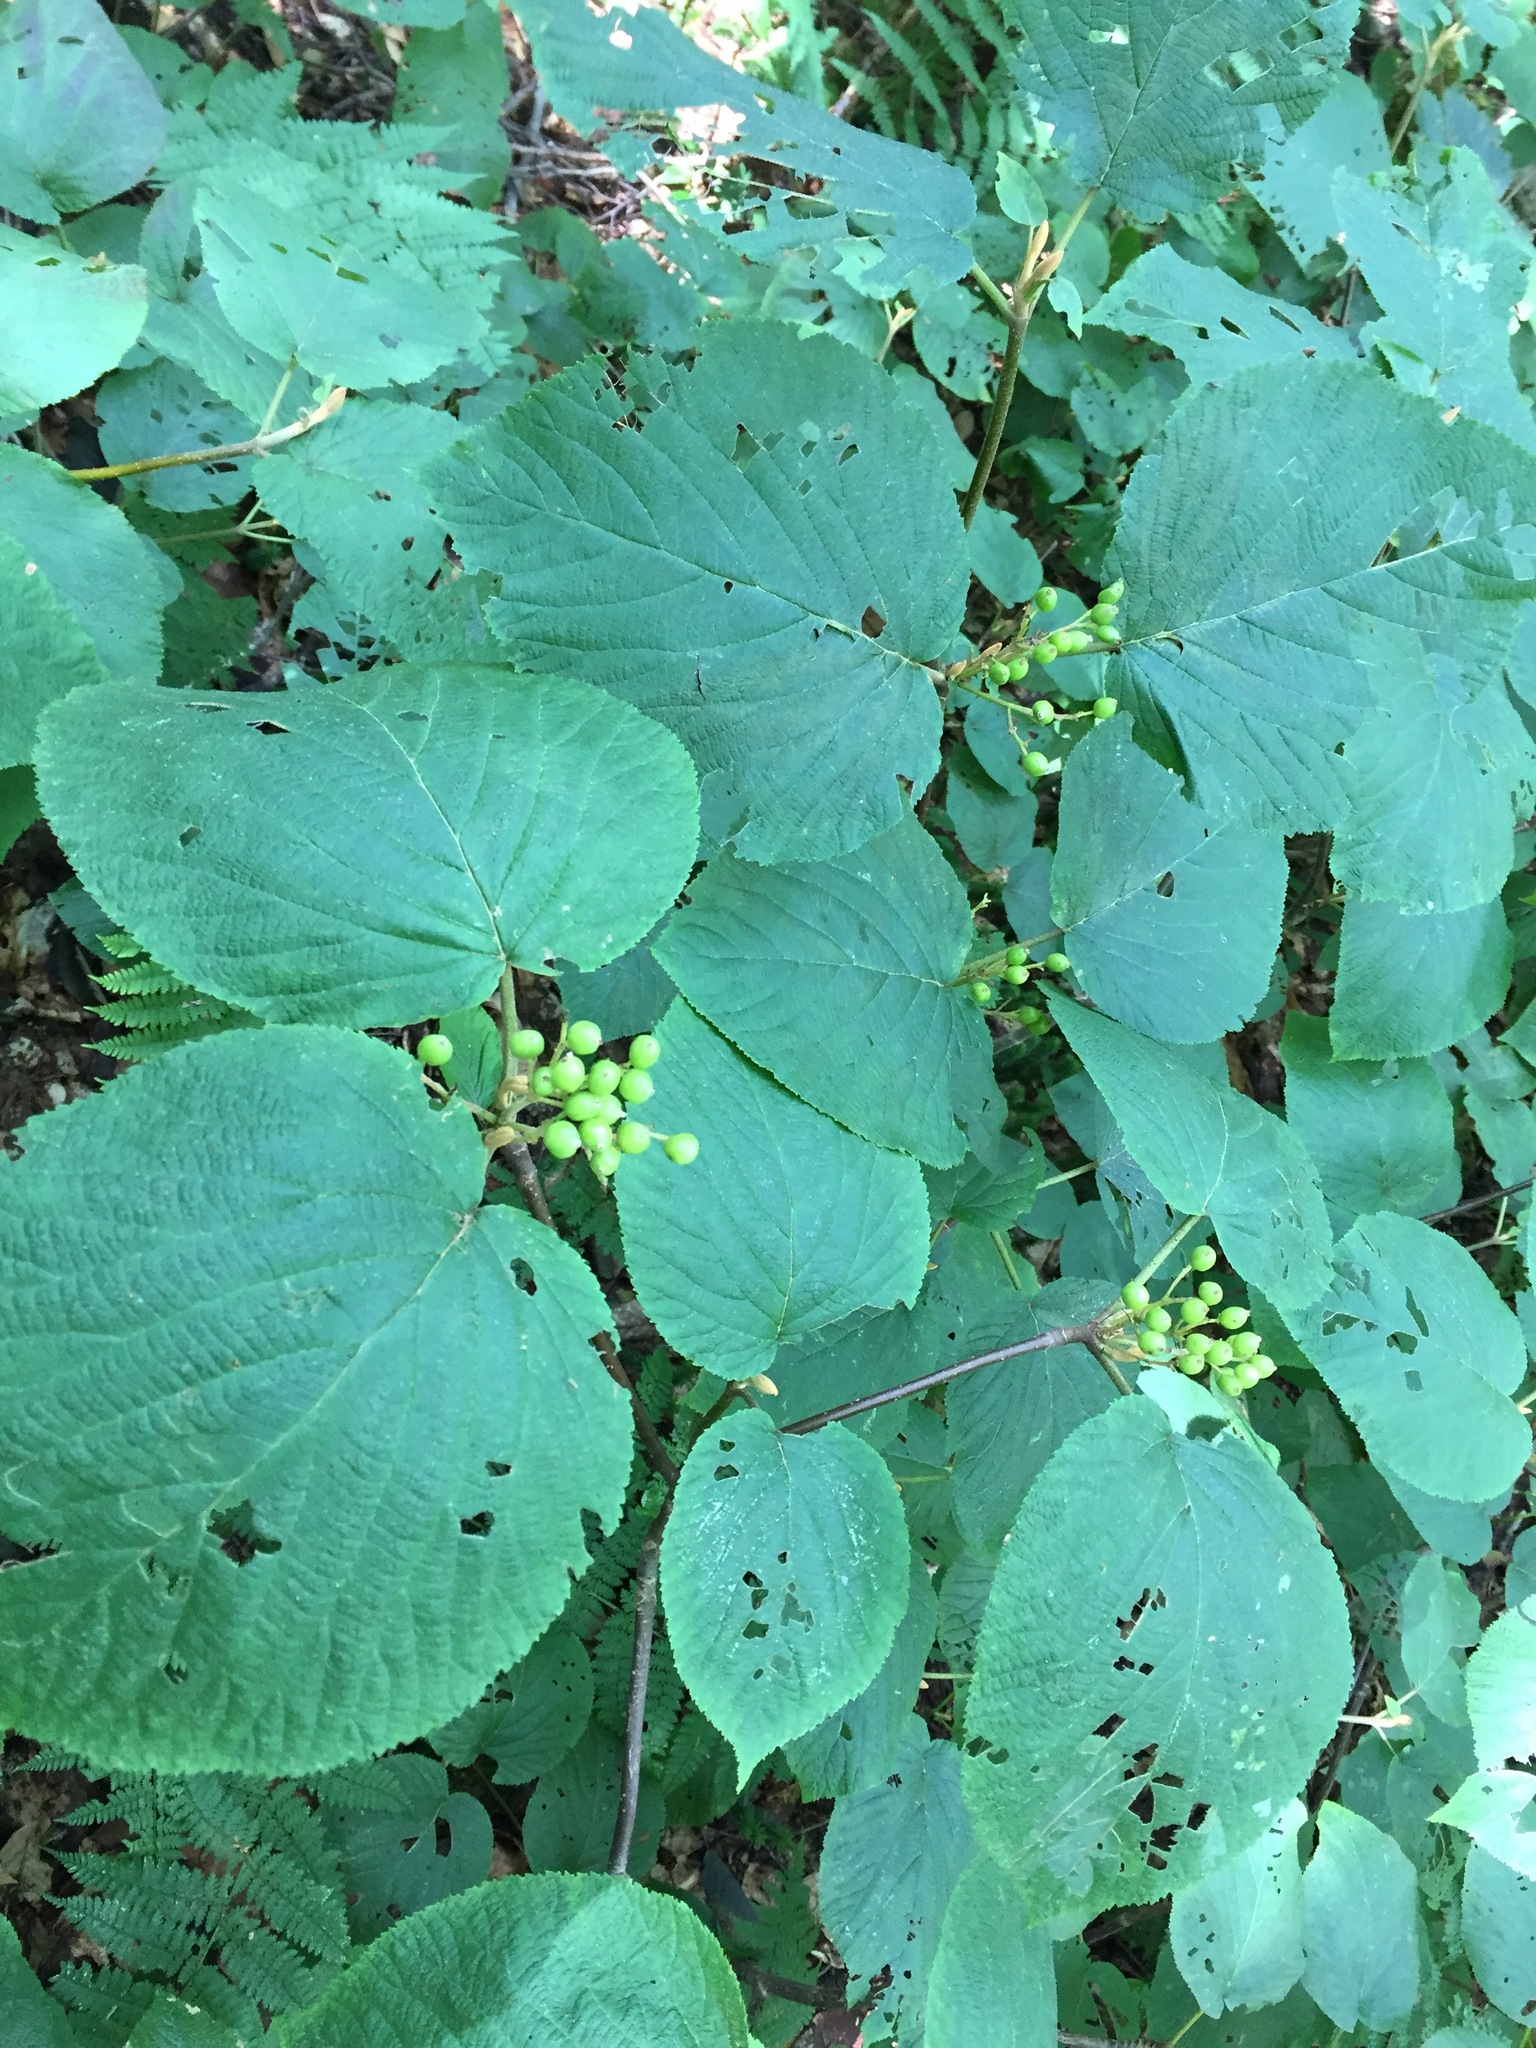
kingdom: Plantae
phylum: Tracheophyta
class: Magnoliopsida
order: Dipsacales
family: Viburnaceae
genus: Viburnum
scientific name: Viburnum lantanoides
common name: Hobblebush
